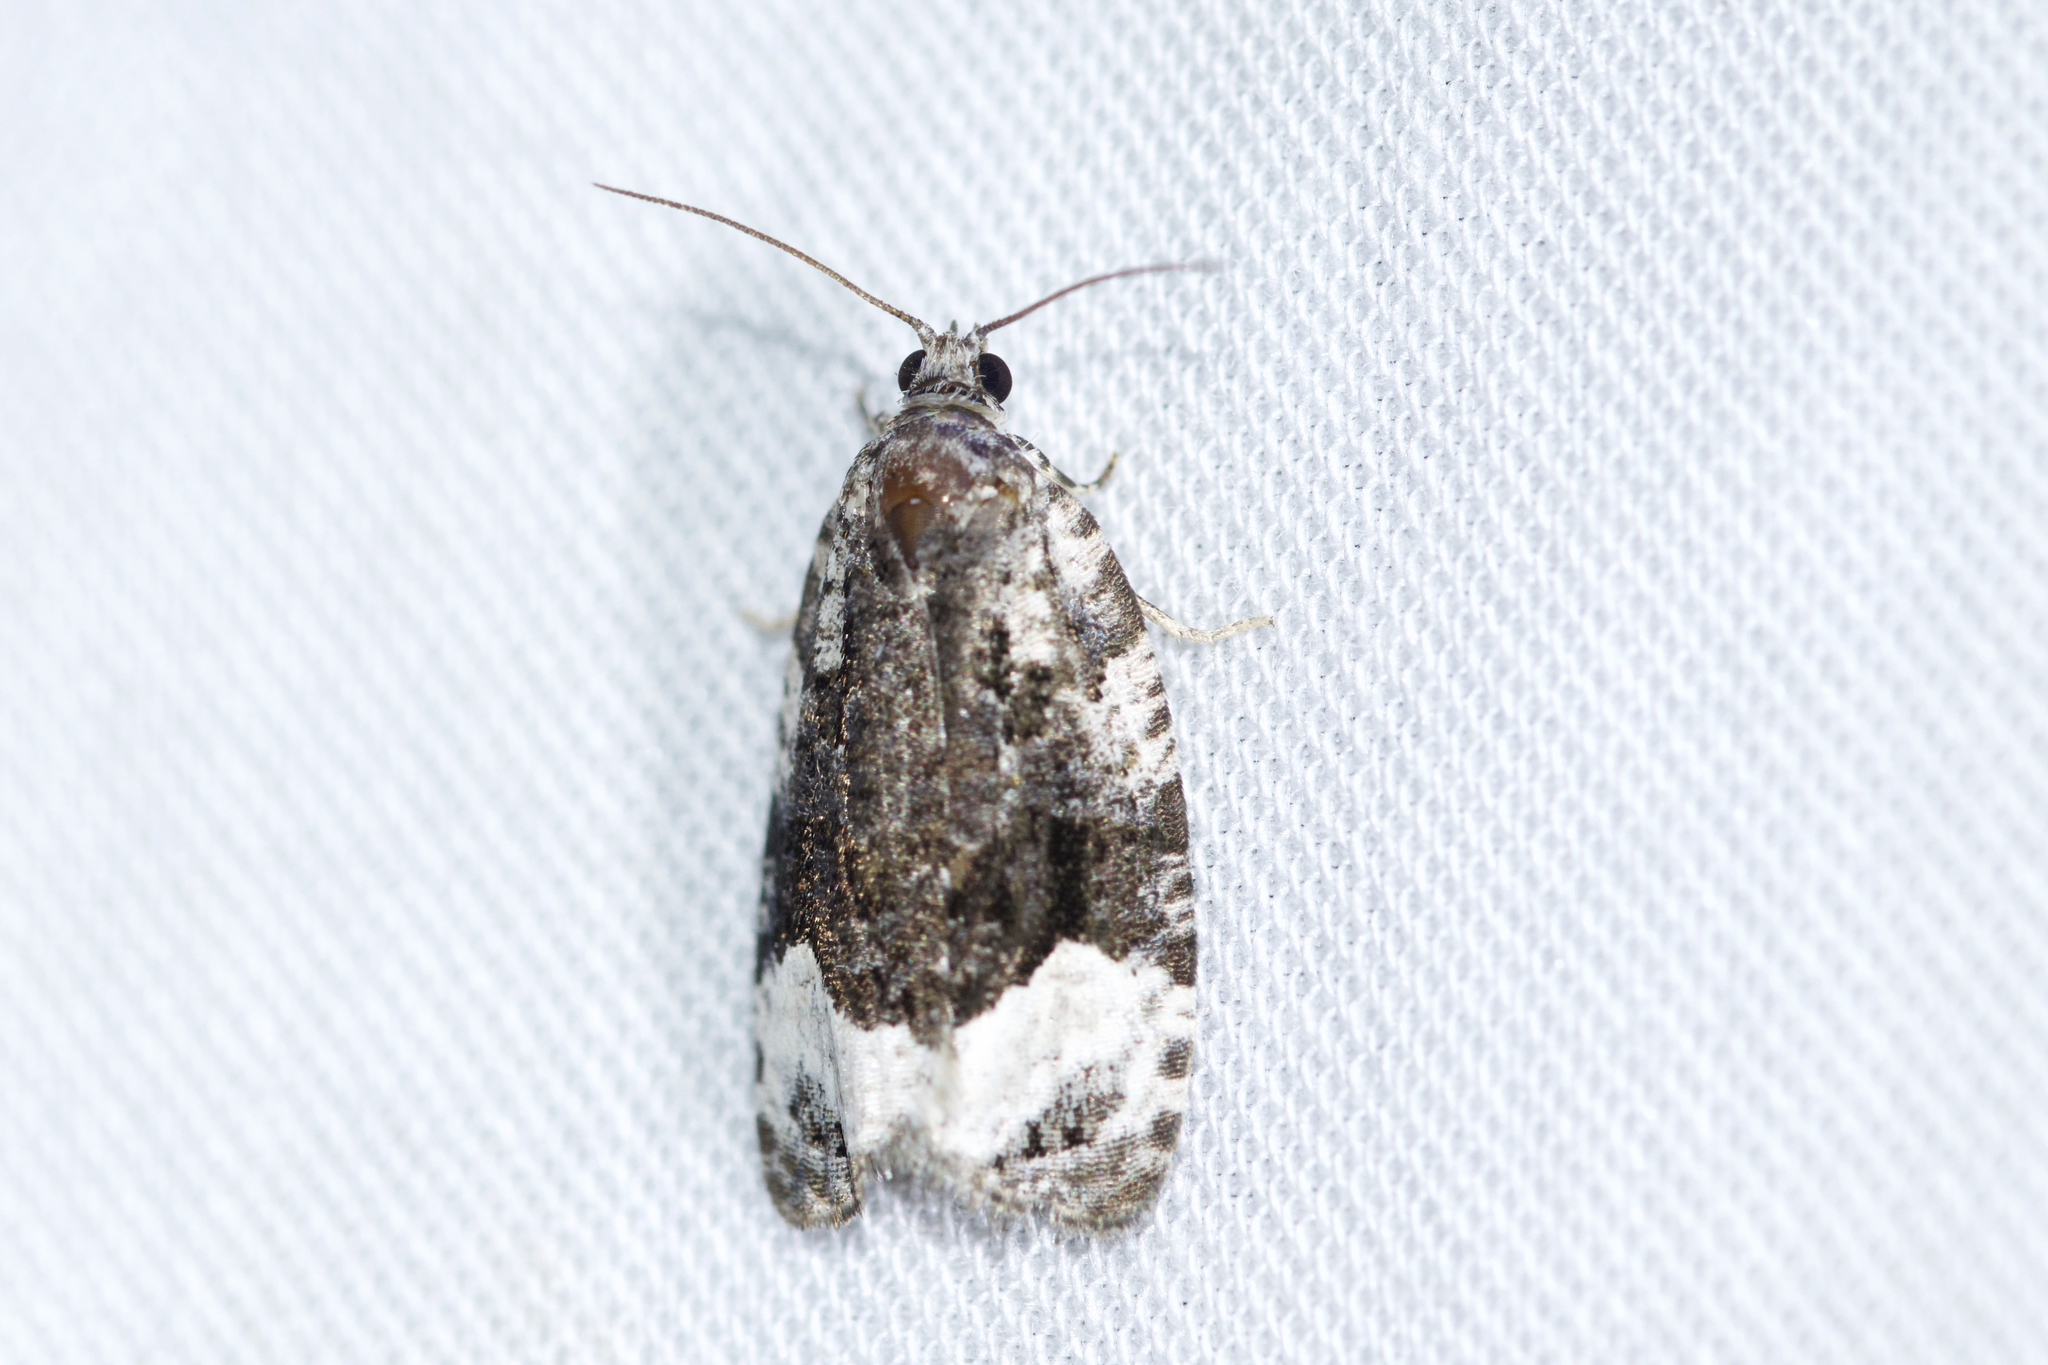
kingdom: Animalia
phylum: Arthropoda
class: Insecta
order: Lepidoptera
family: Tortricidae
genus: Apotomis
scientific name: Apotomis funerea
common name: Funereal apotomis moth
